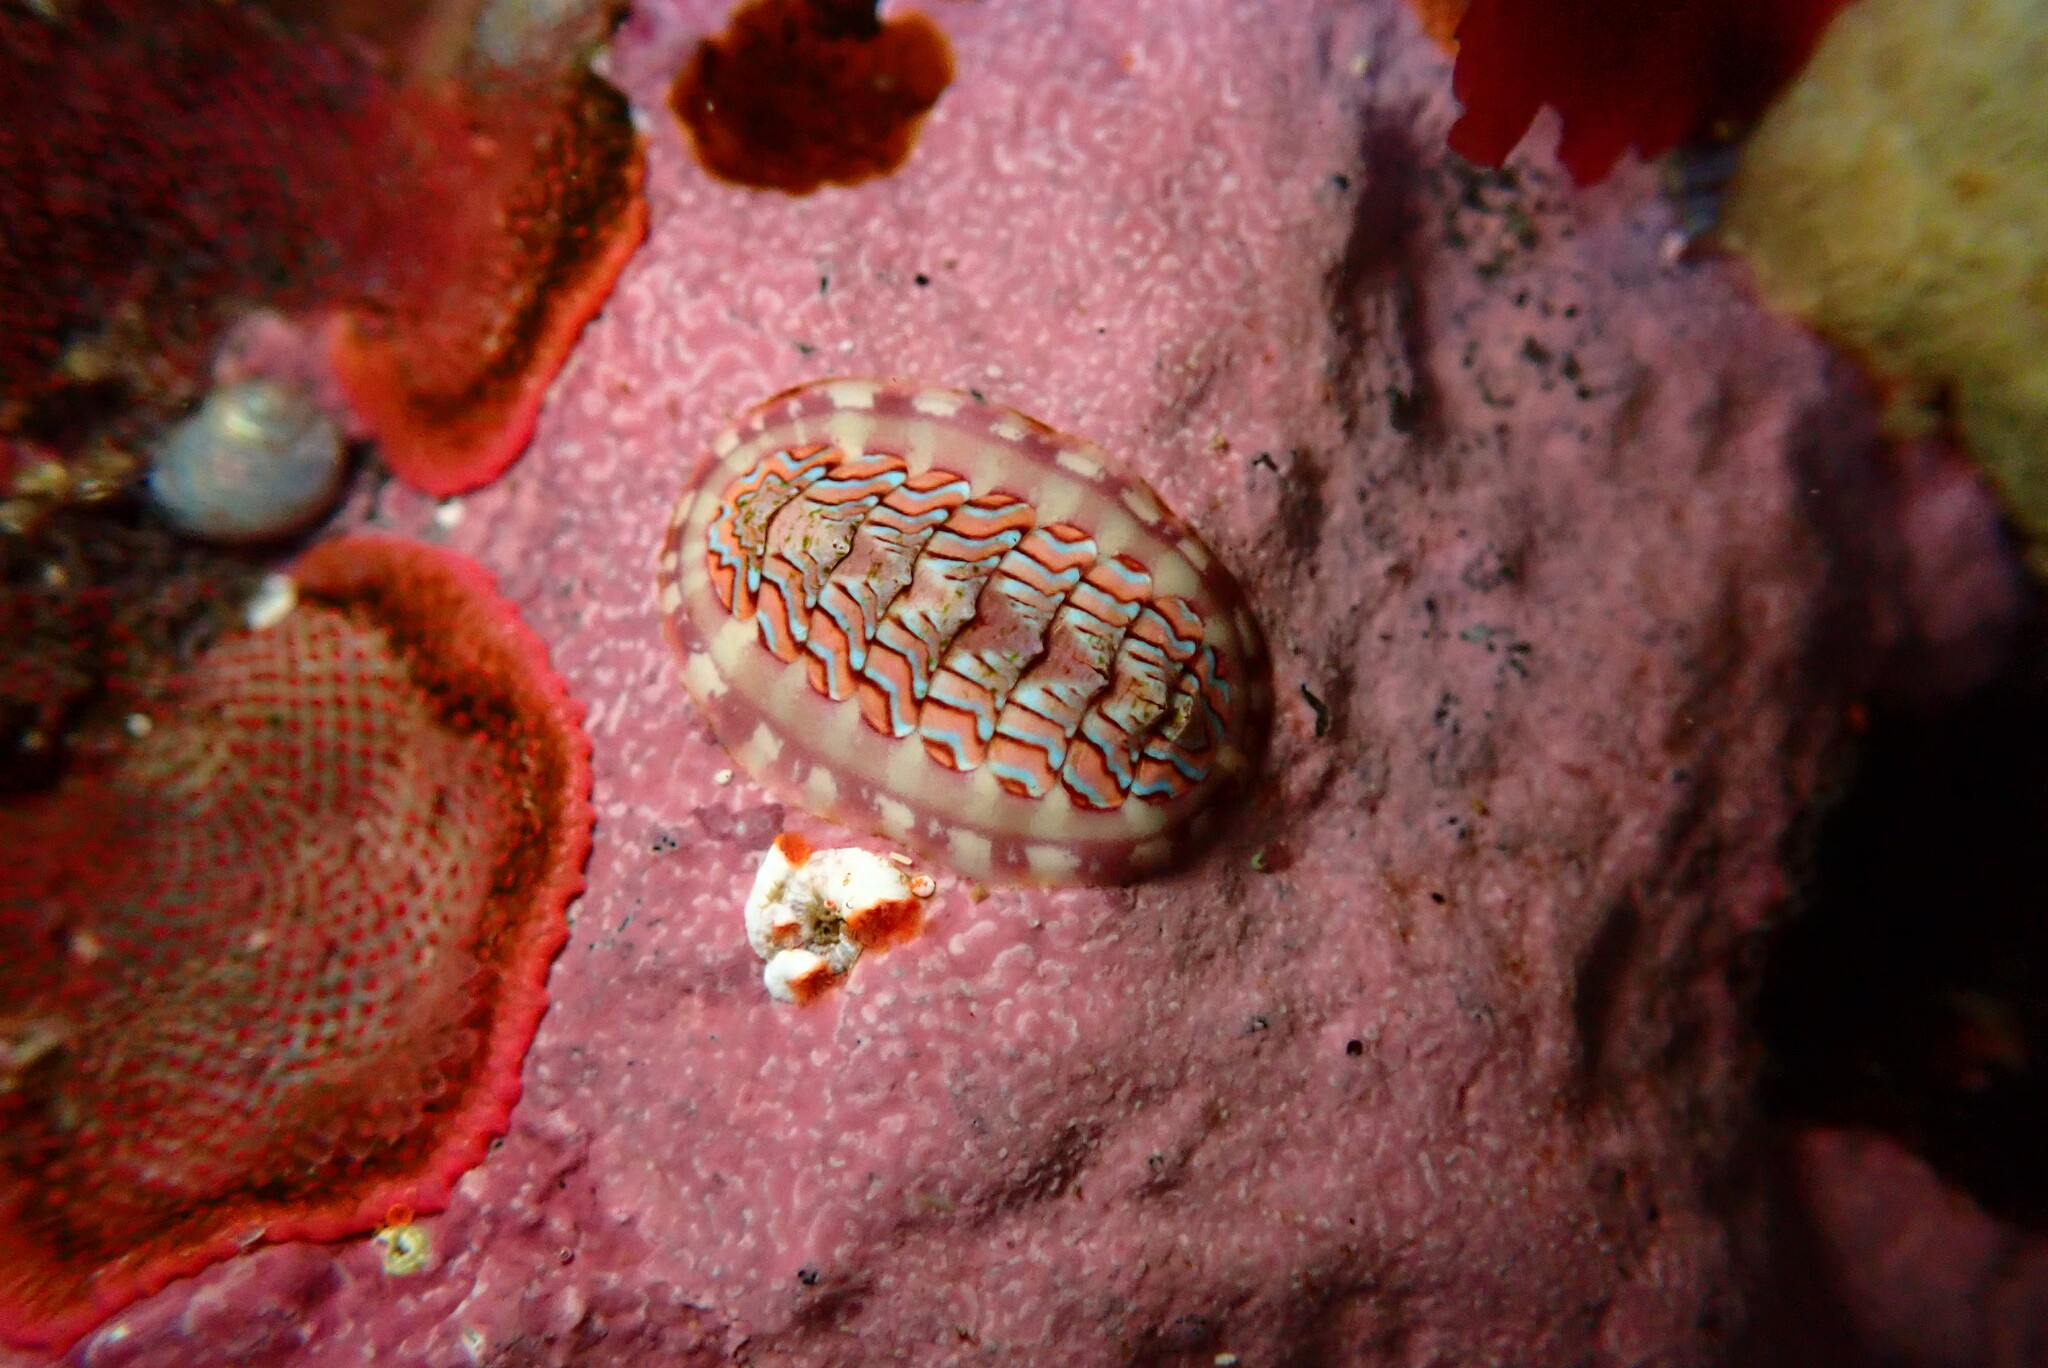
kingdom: Animalia
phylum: Mollusca
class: Polyplacophora
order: Chitonida
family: Tonicellidae
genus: Tonicella
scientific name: Tonicella lokii
